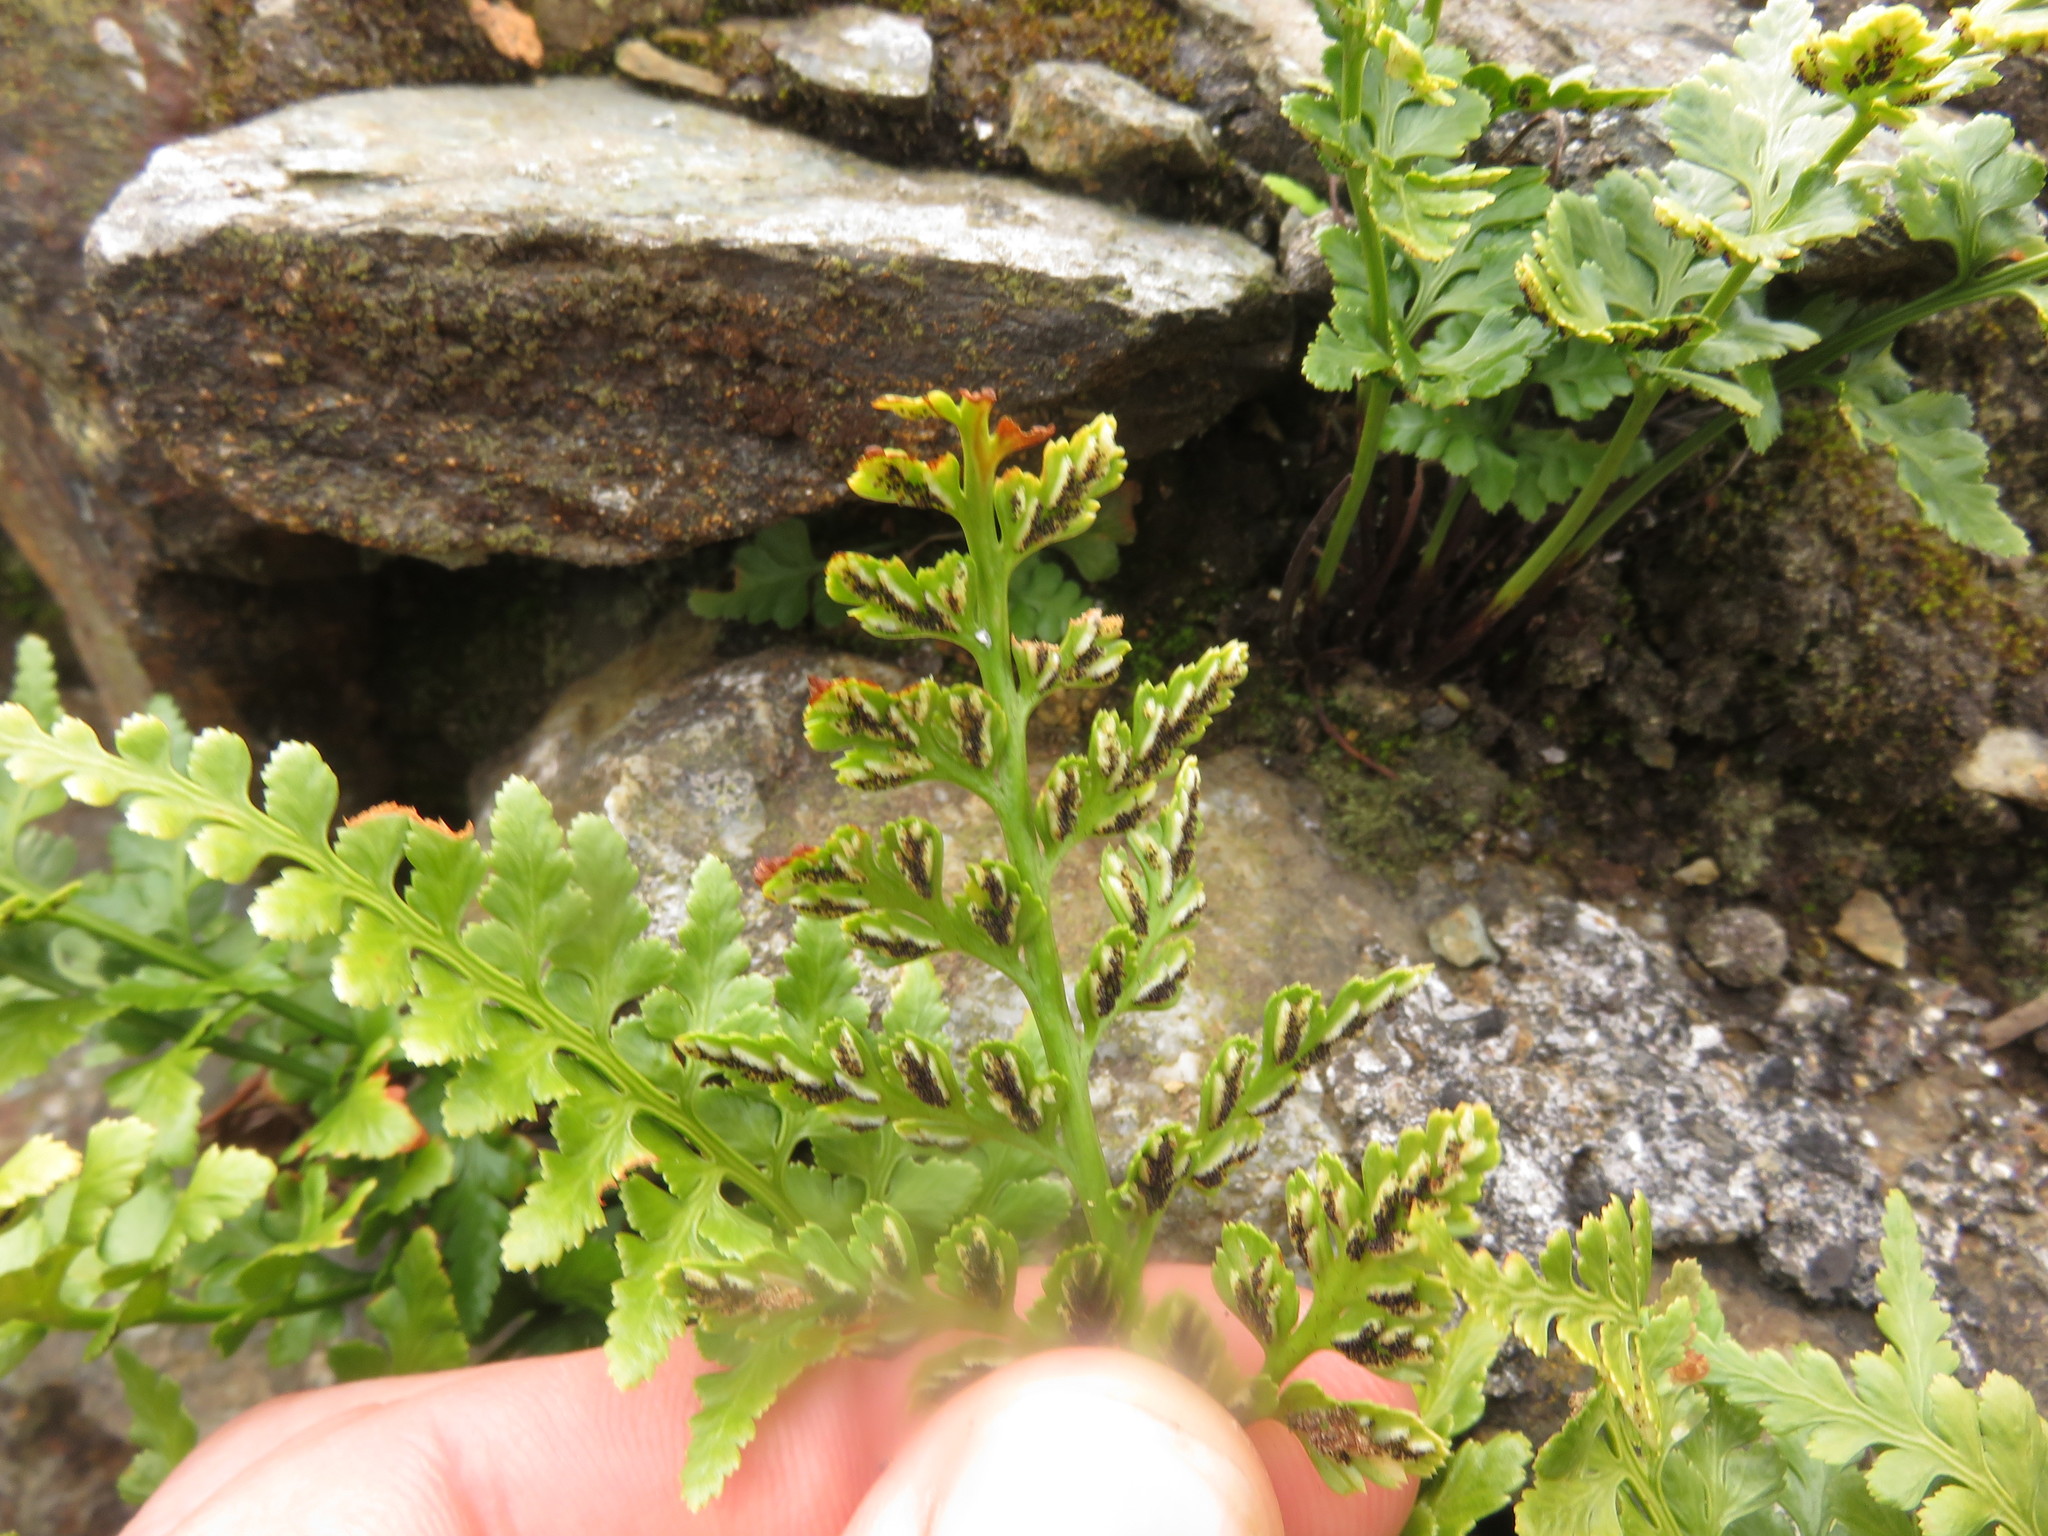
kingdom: Plantae
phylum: Tracheophyta
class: Polypodiopsida
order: Polypodiales
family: Aspleniaceae
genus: Asplenium
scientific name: Asplenium adiantum-nigrum
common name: Black spleenwort
